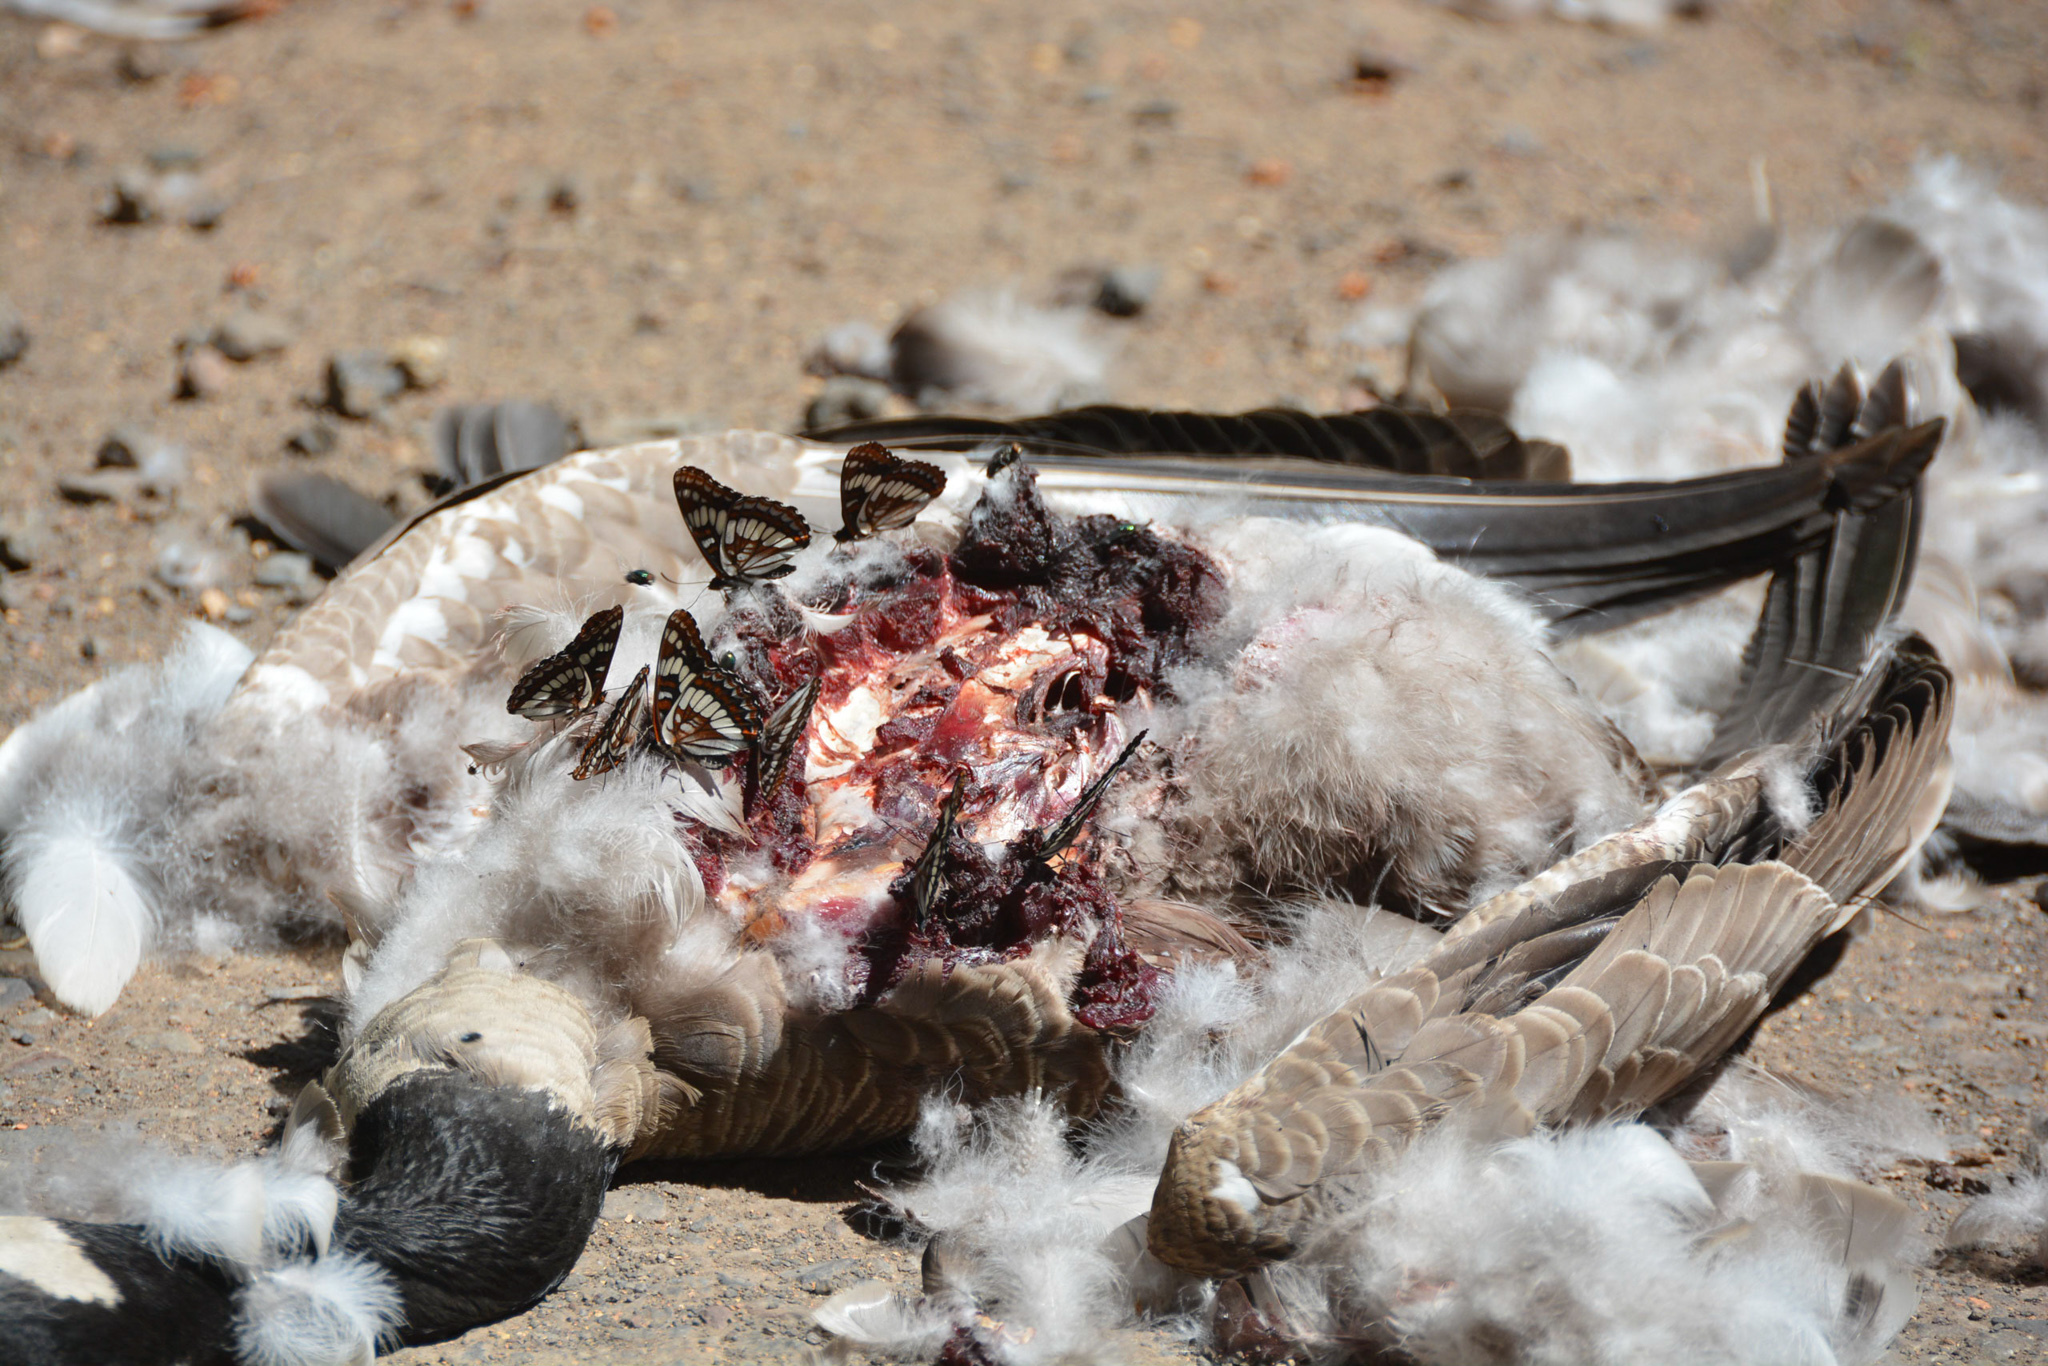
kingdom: Animalia
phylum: Arthropoda
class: Insecta
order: Lepidoptera
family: Nymphalidae
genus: Limenitis
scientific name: Limenitis lorquini
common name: Lorquin's admiral
